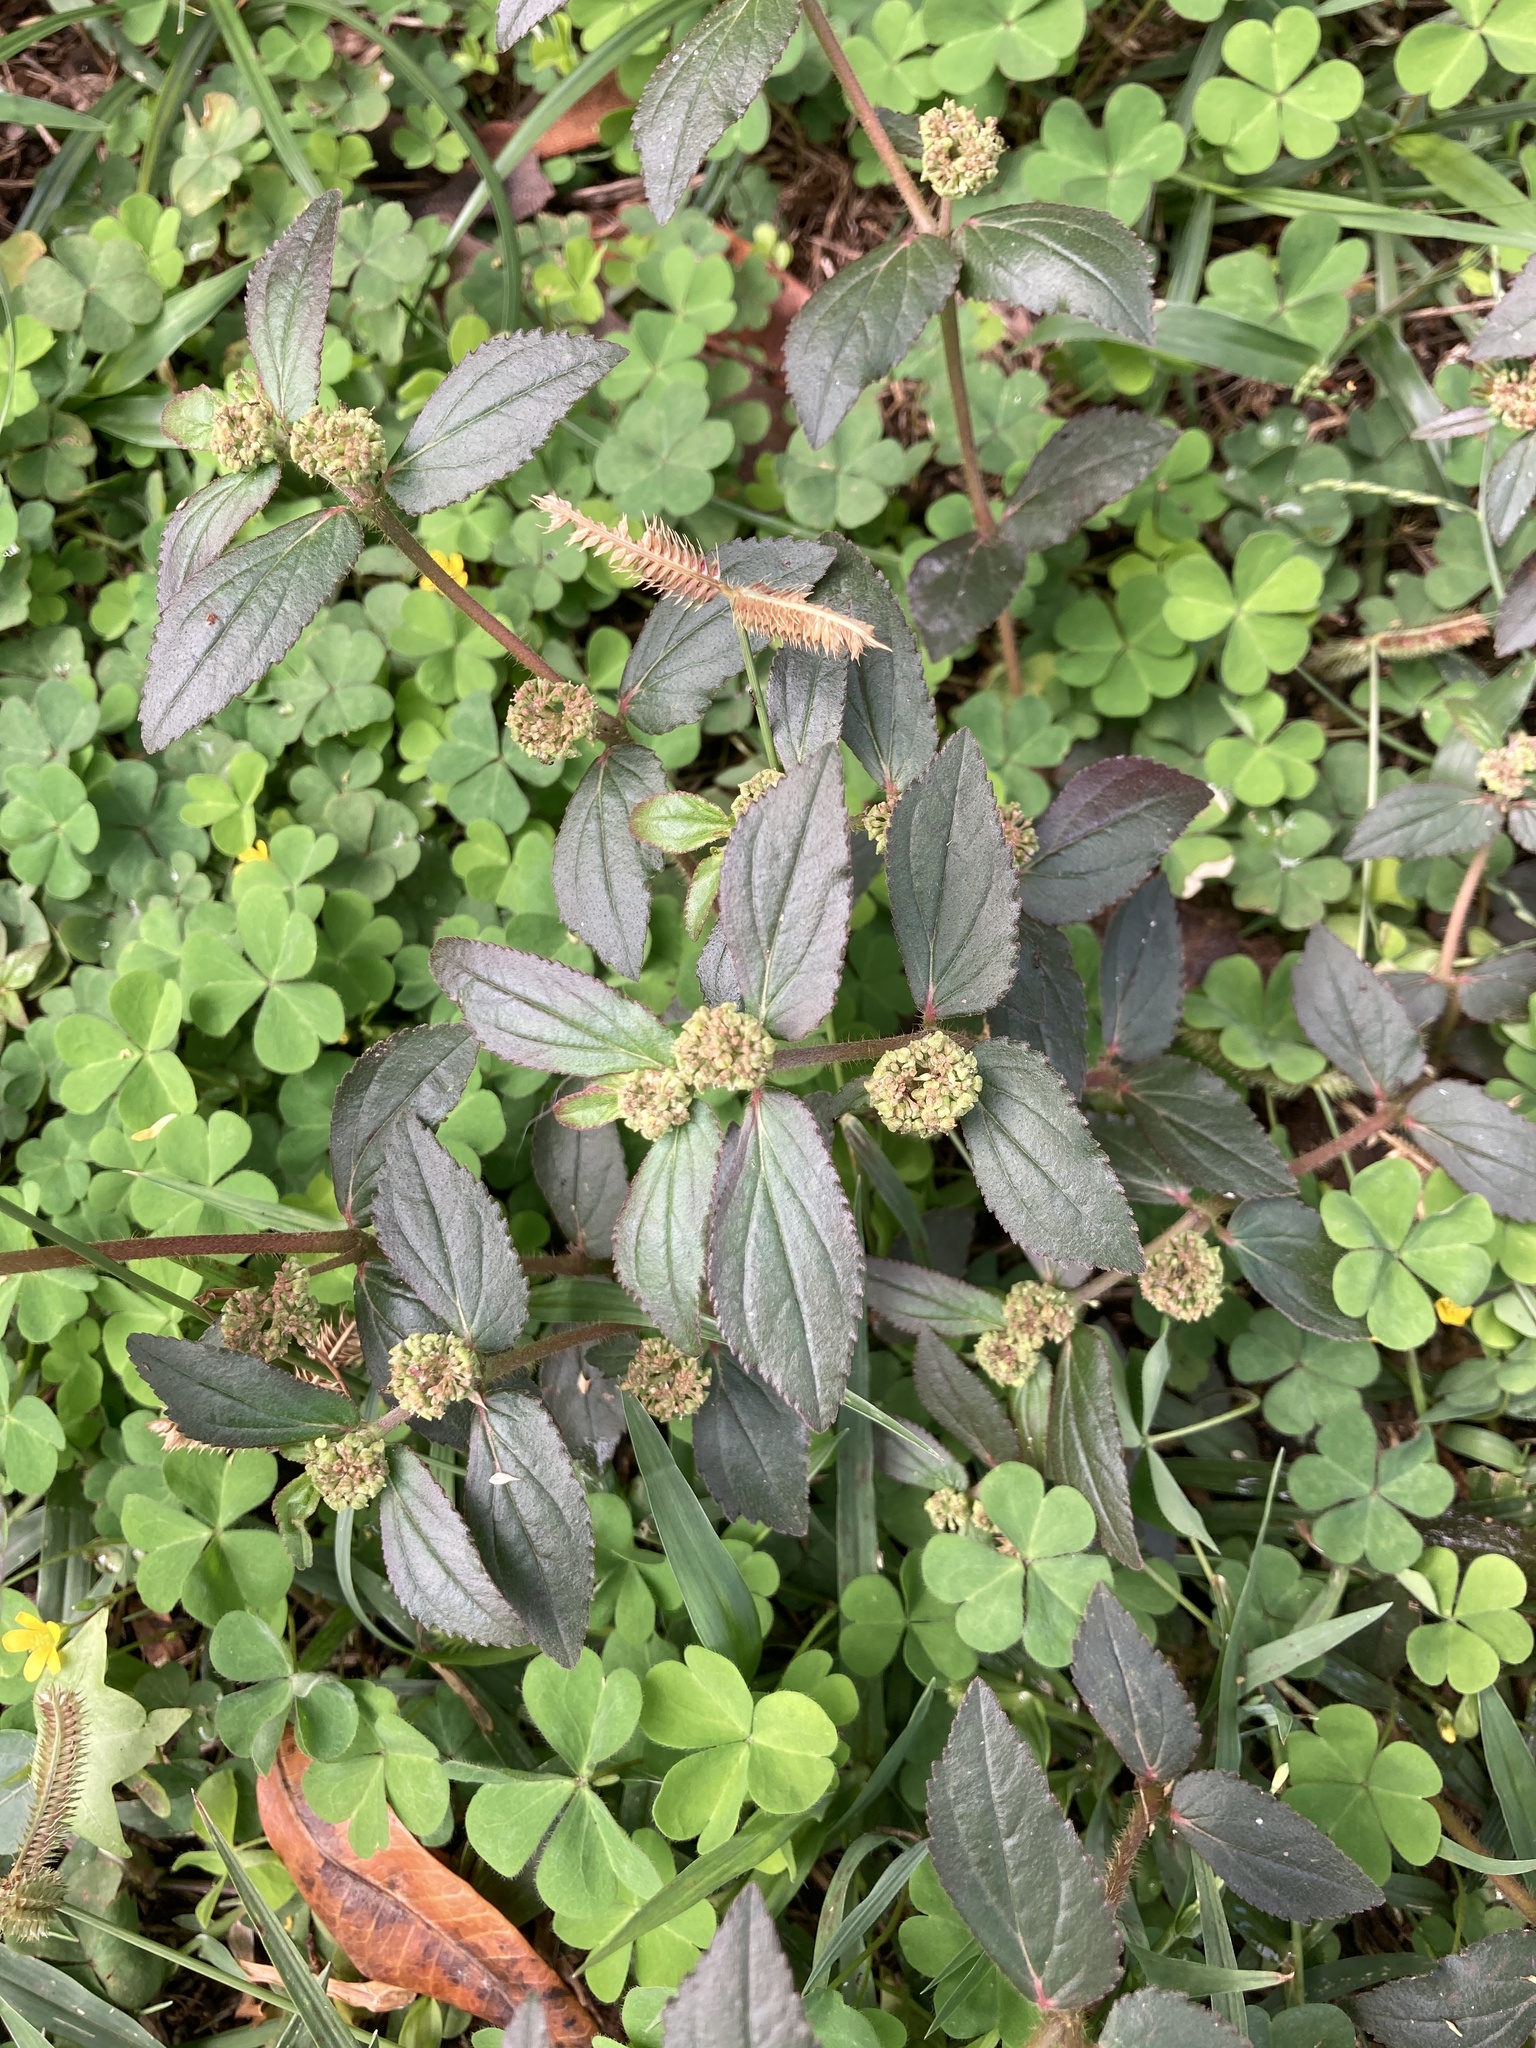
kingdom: Plantae
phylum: Tracheophyta
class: Magnoliopsida
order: Malpighiales
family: Euphorbiaceae
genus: Euphorbia
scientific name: Euphorbia hirta
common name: Pillpod sandmat
